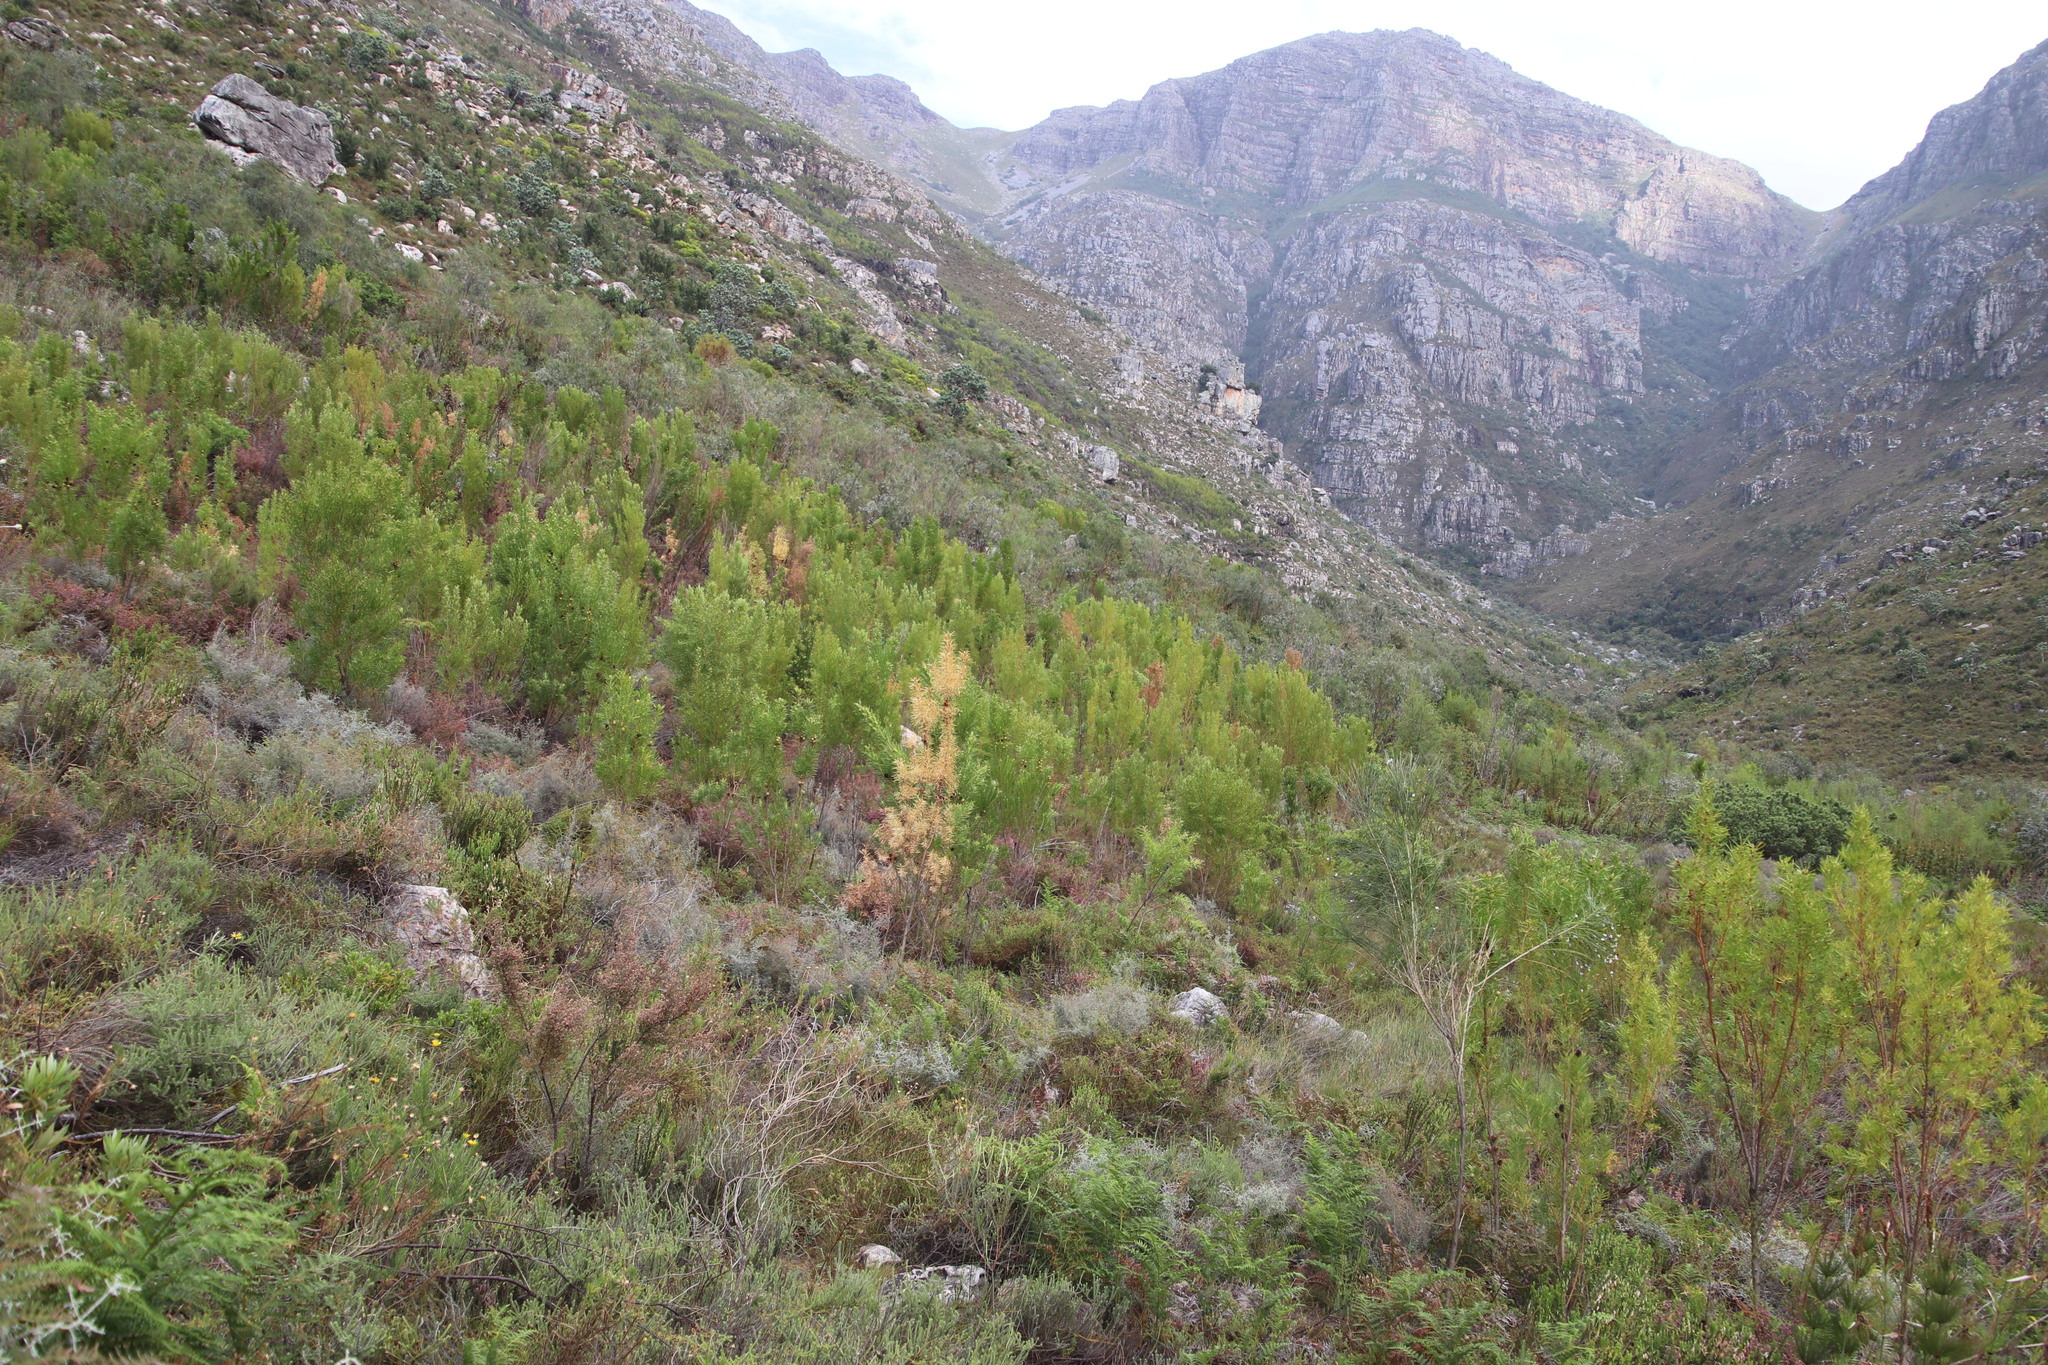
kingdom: Plantae
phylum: Tracheophyta
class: Magnoliopsida
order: Proteales
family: Proteaceae
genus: Leucadendron
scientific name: Leucadendron salicifolium
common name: Common stream conebush
